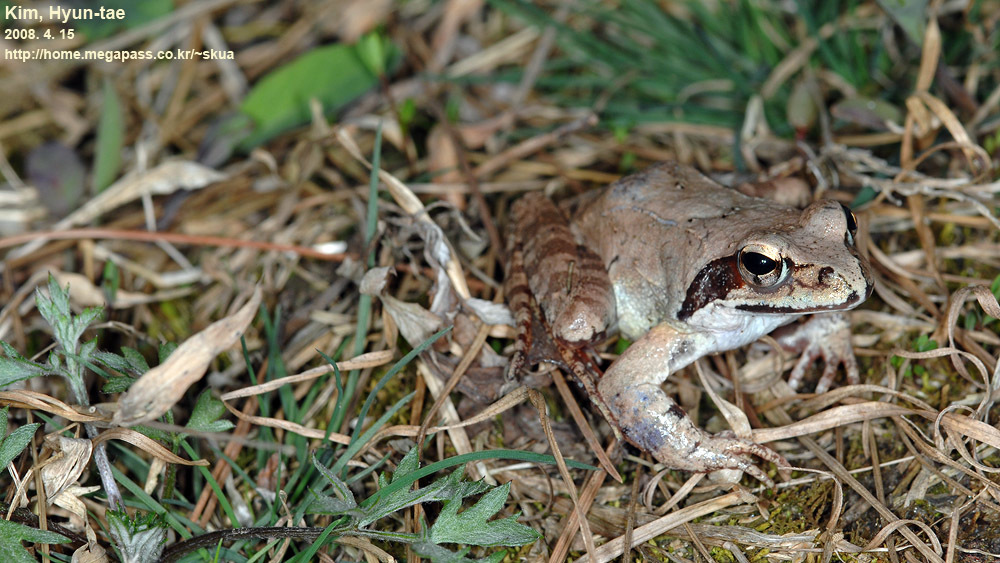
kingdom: Animalia
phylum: Chordata
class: Amphibia
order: Anura
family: Ranidae
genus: Rana
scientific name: Rana uenoi
